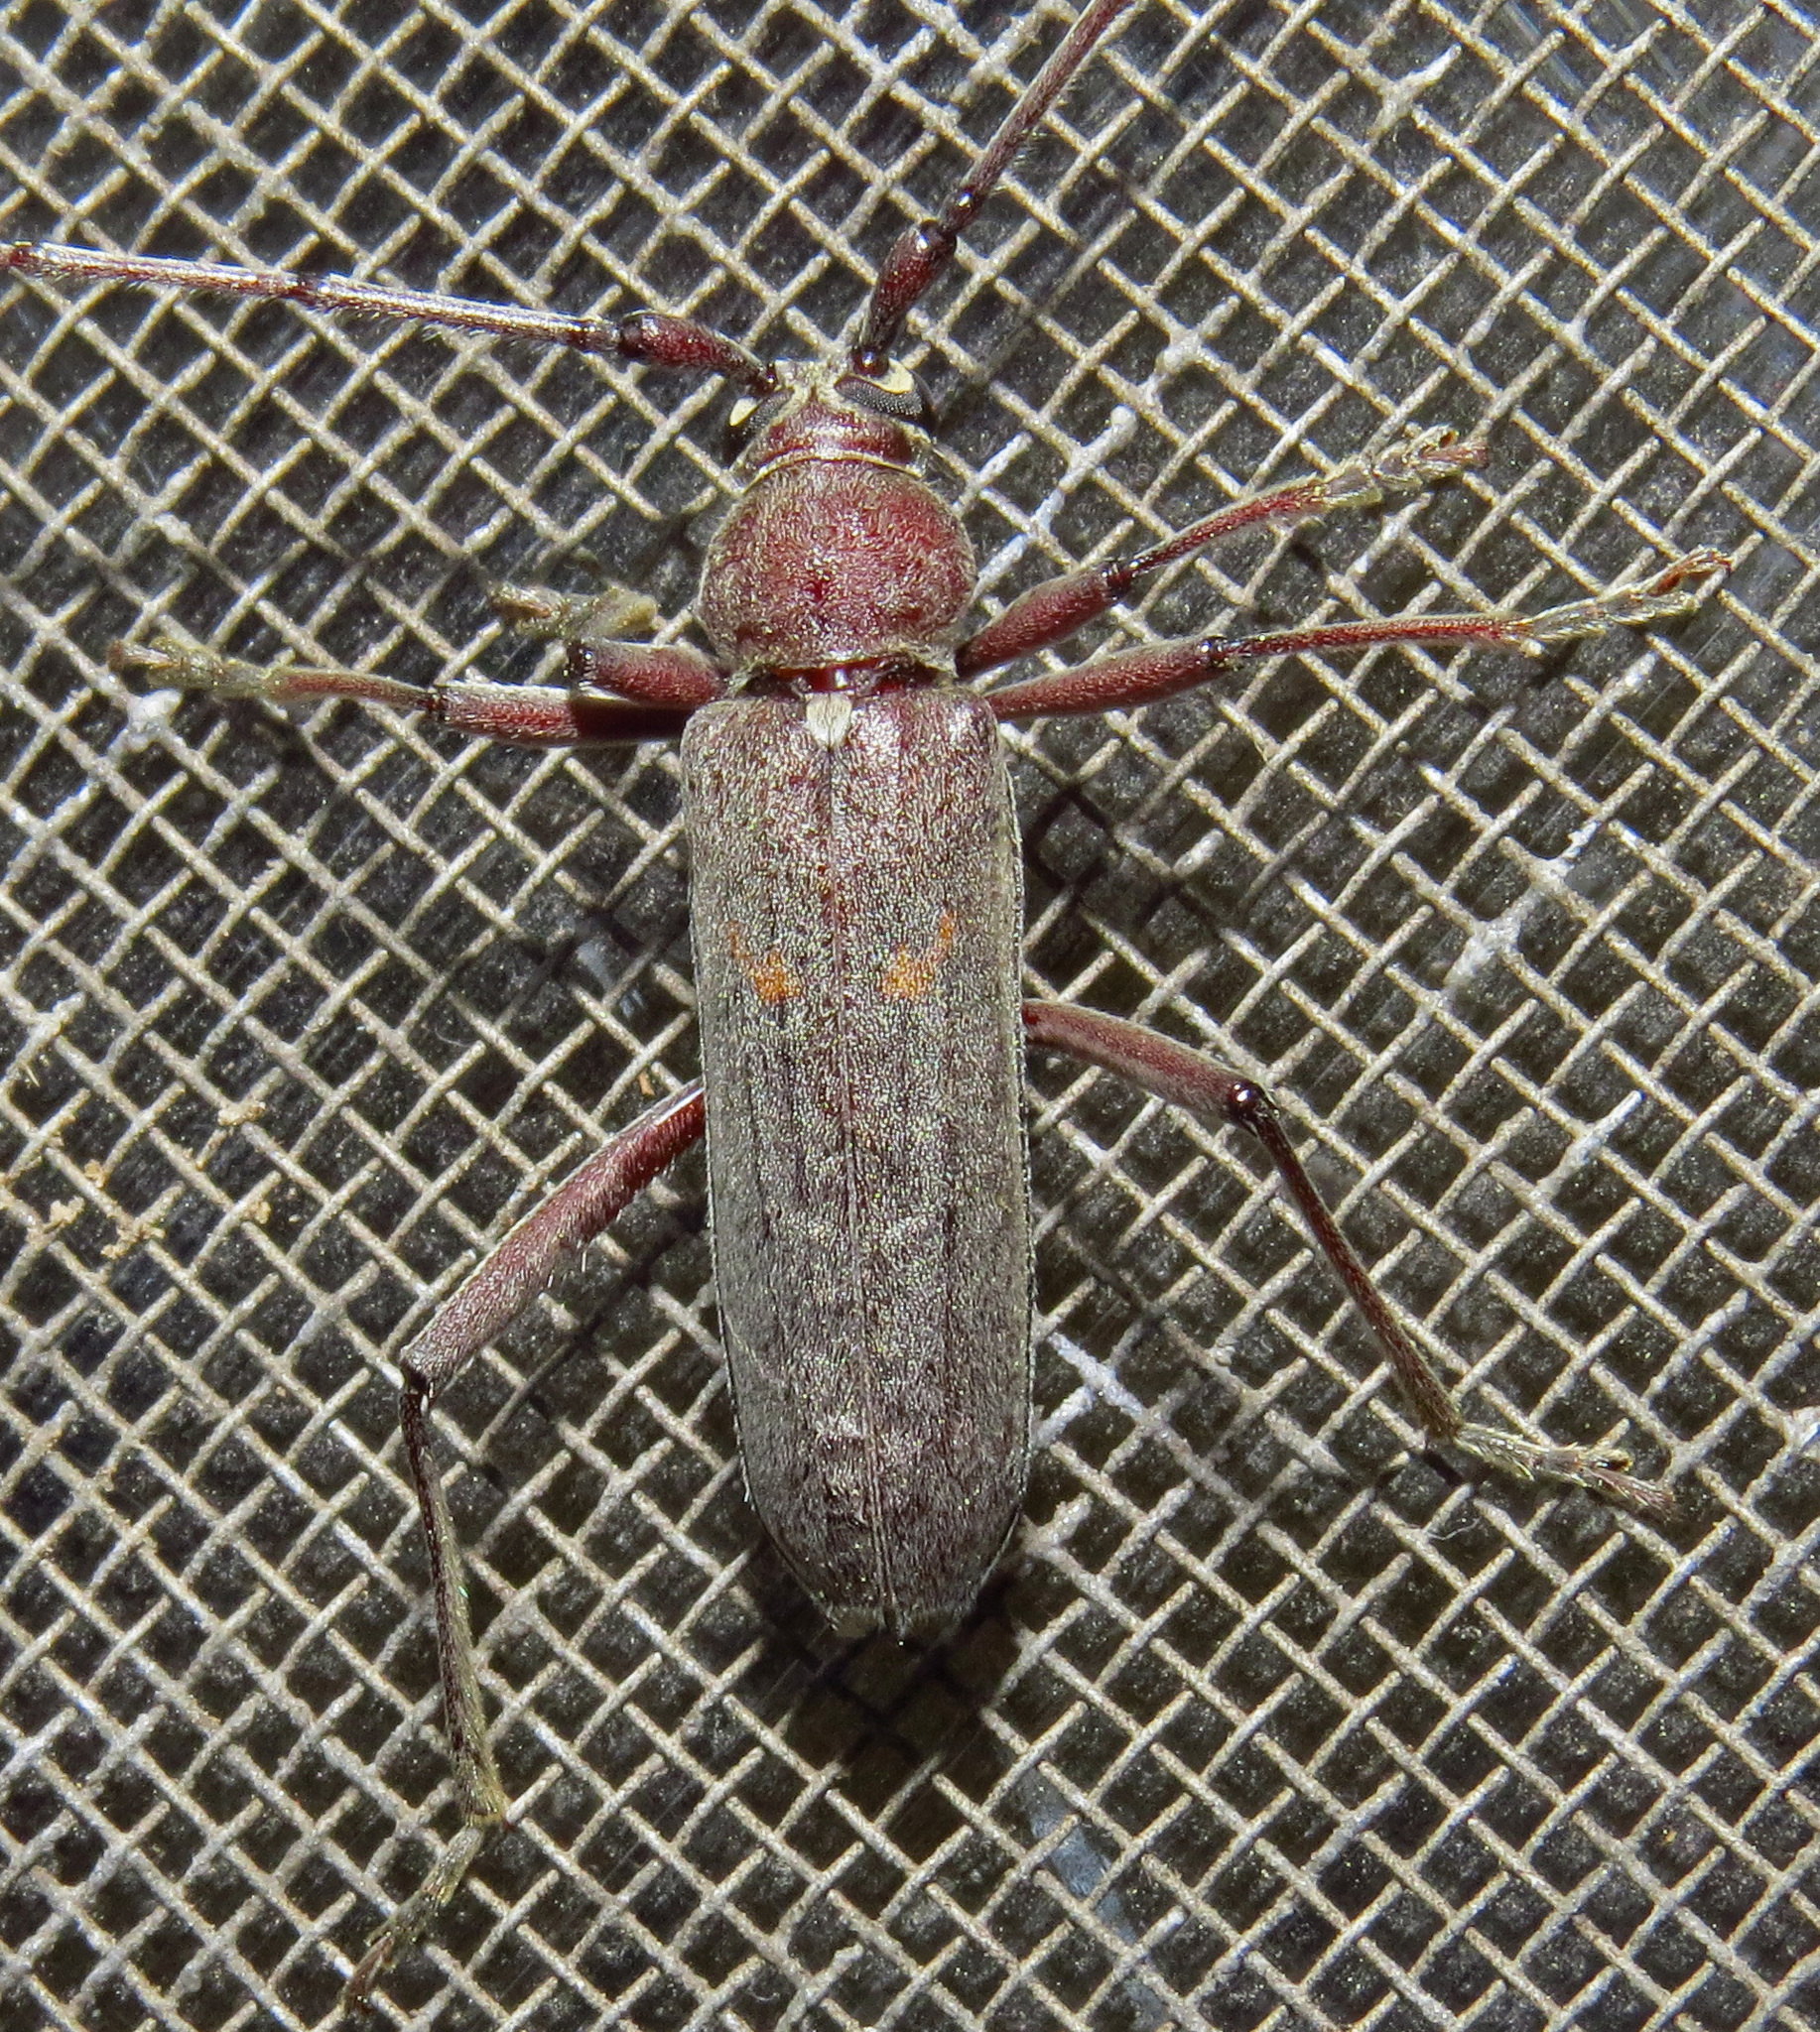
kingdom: Animalia
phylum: Arthropoda
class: Insecta
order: Coleoptera
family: Cerambycidae
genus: Knulliana
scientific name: Knulliana cincta
